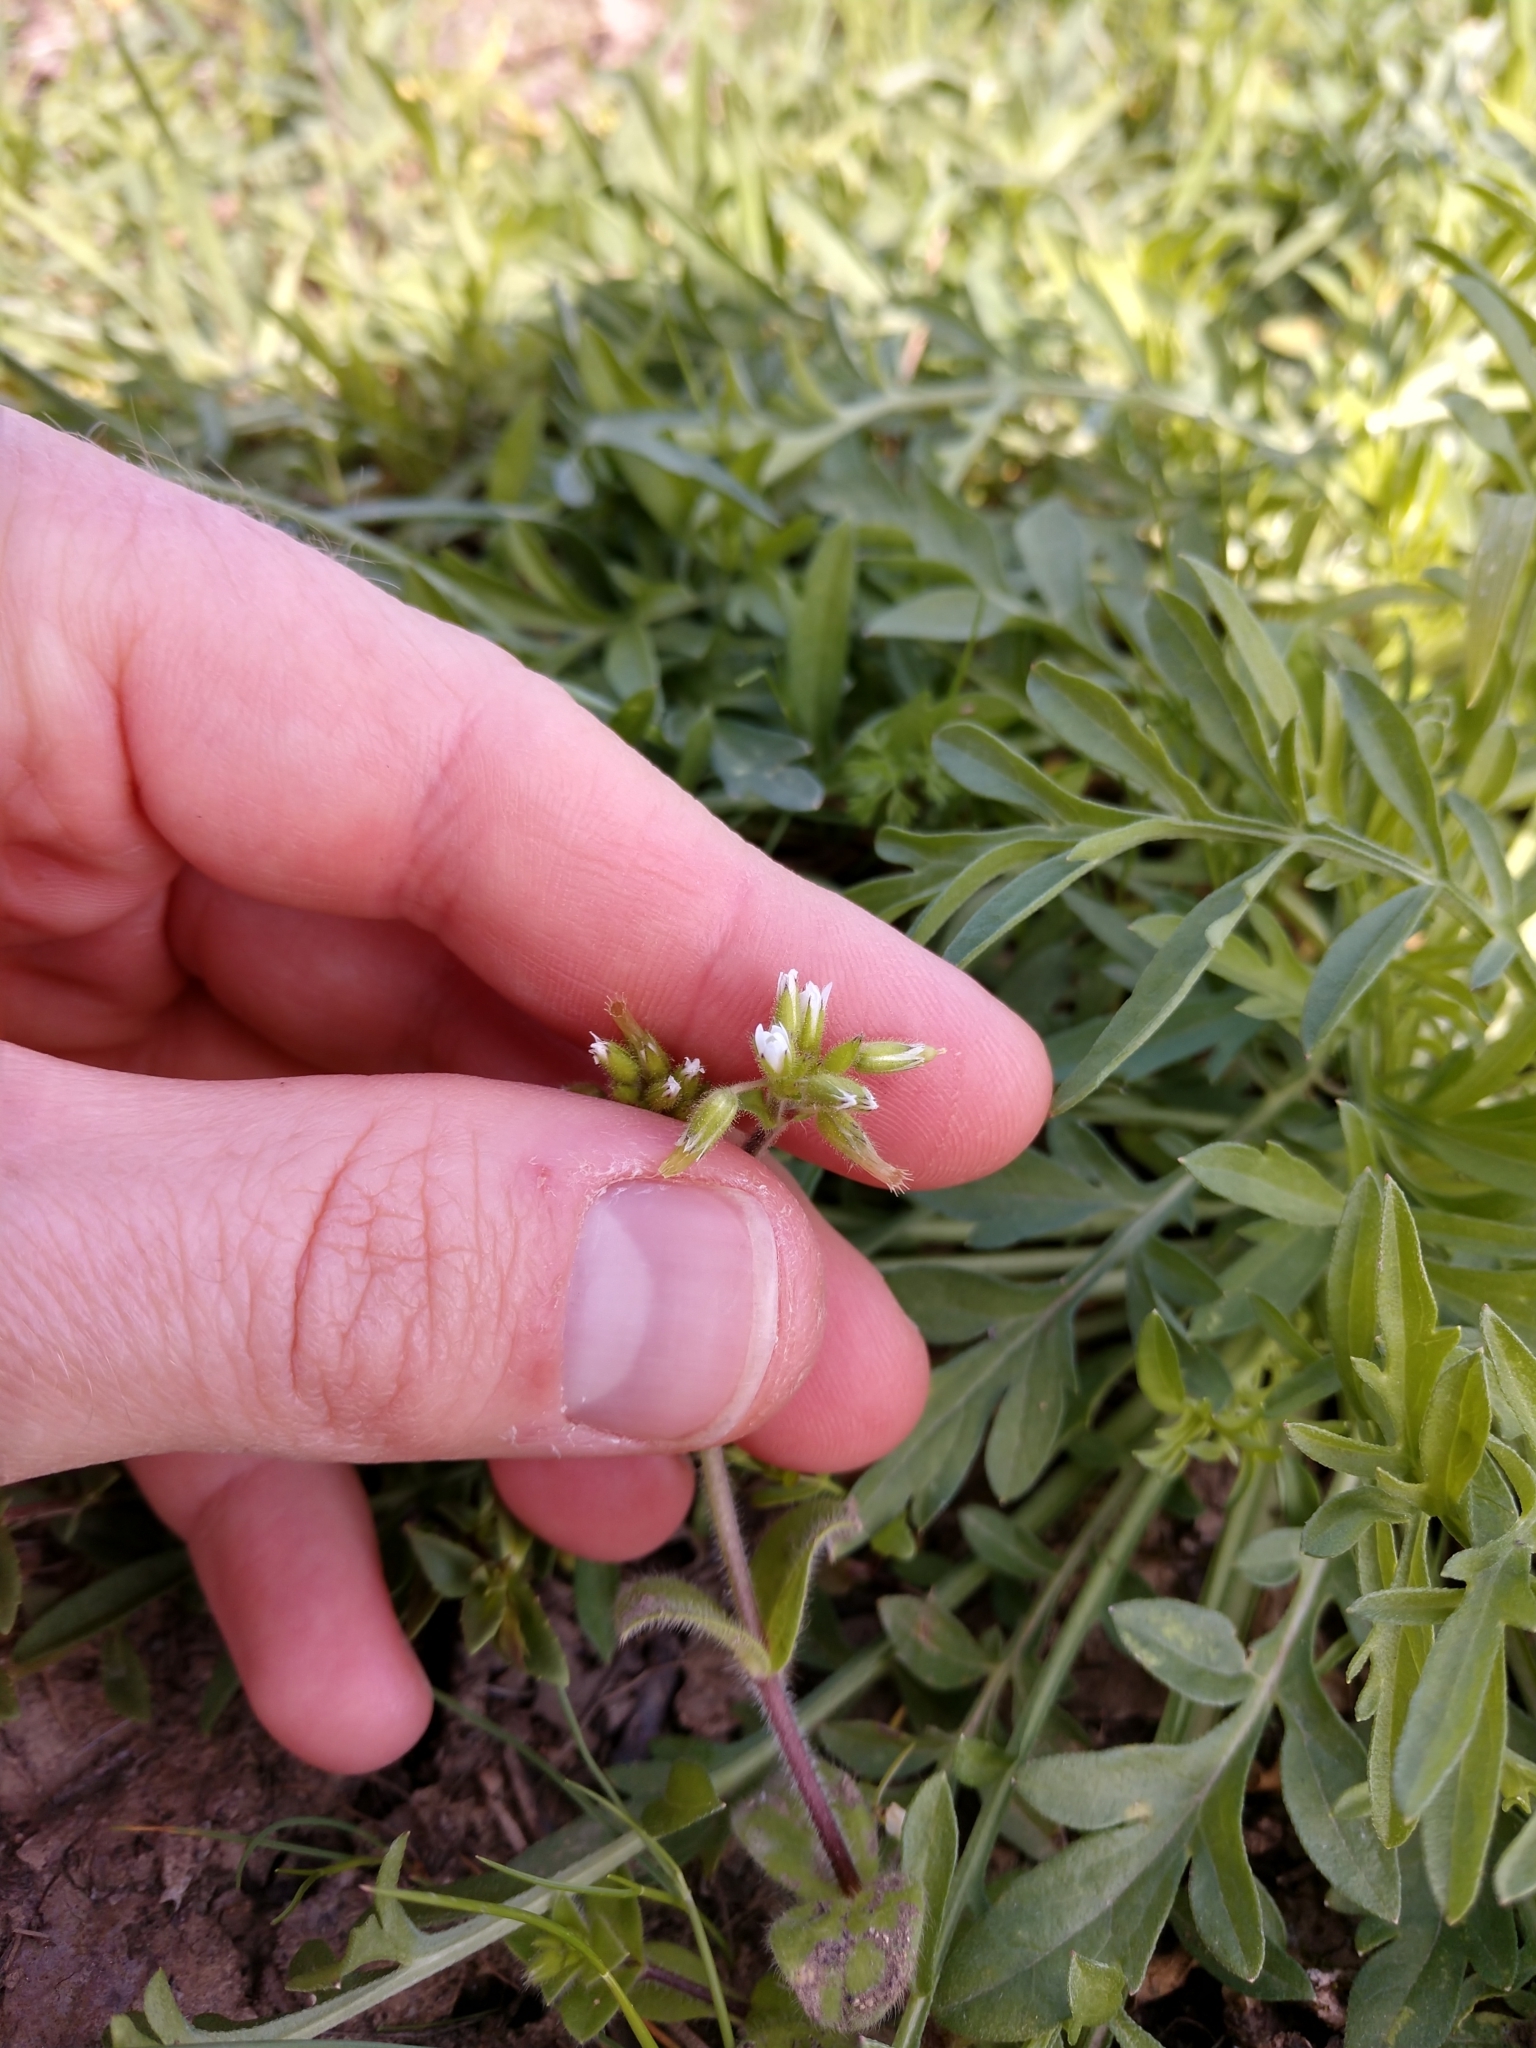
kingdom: Plantae
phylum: Tracheophyta
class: Magnoliopsida
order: Caryophyllales
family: Caryophyllaceae
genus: Cerastium
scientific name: Cerastium glomeratum
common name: Sticky chickweed
